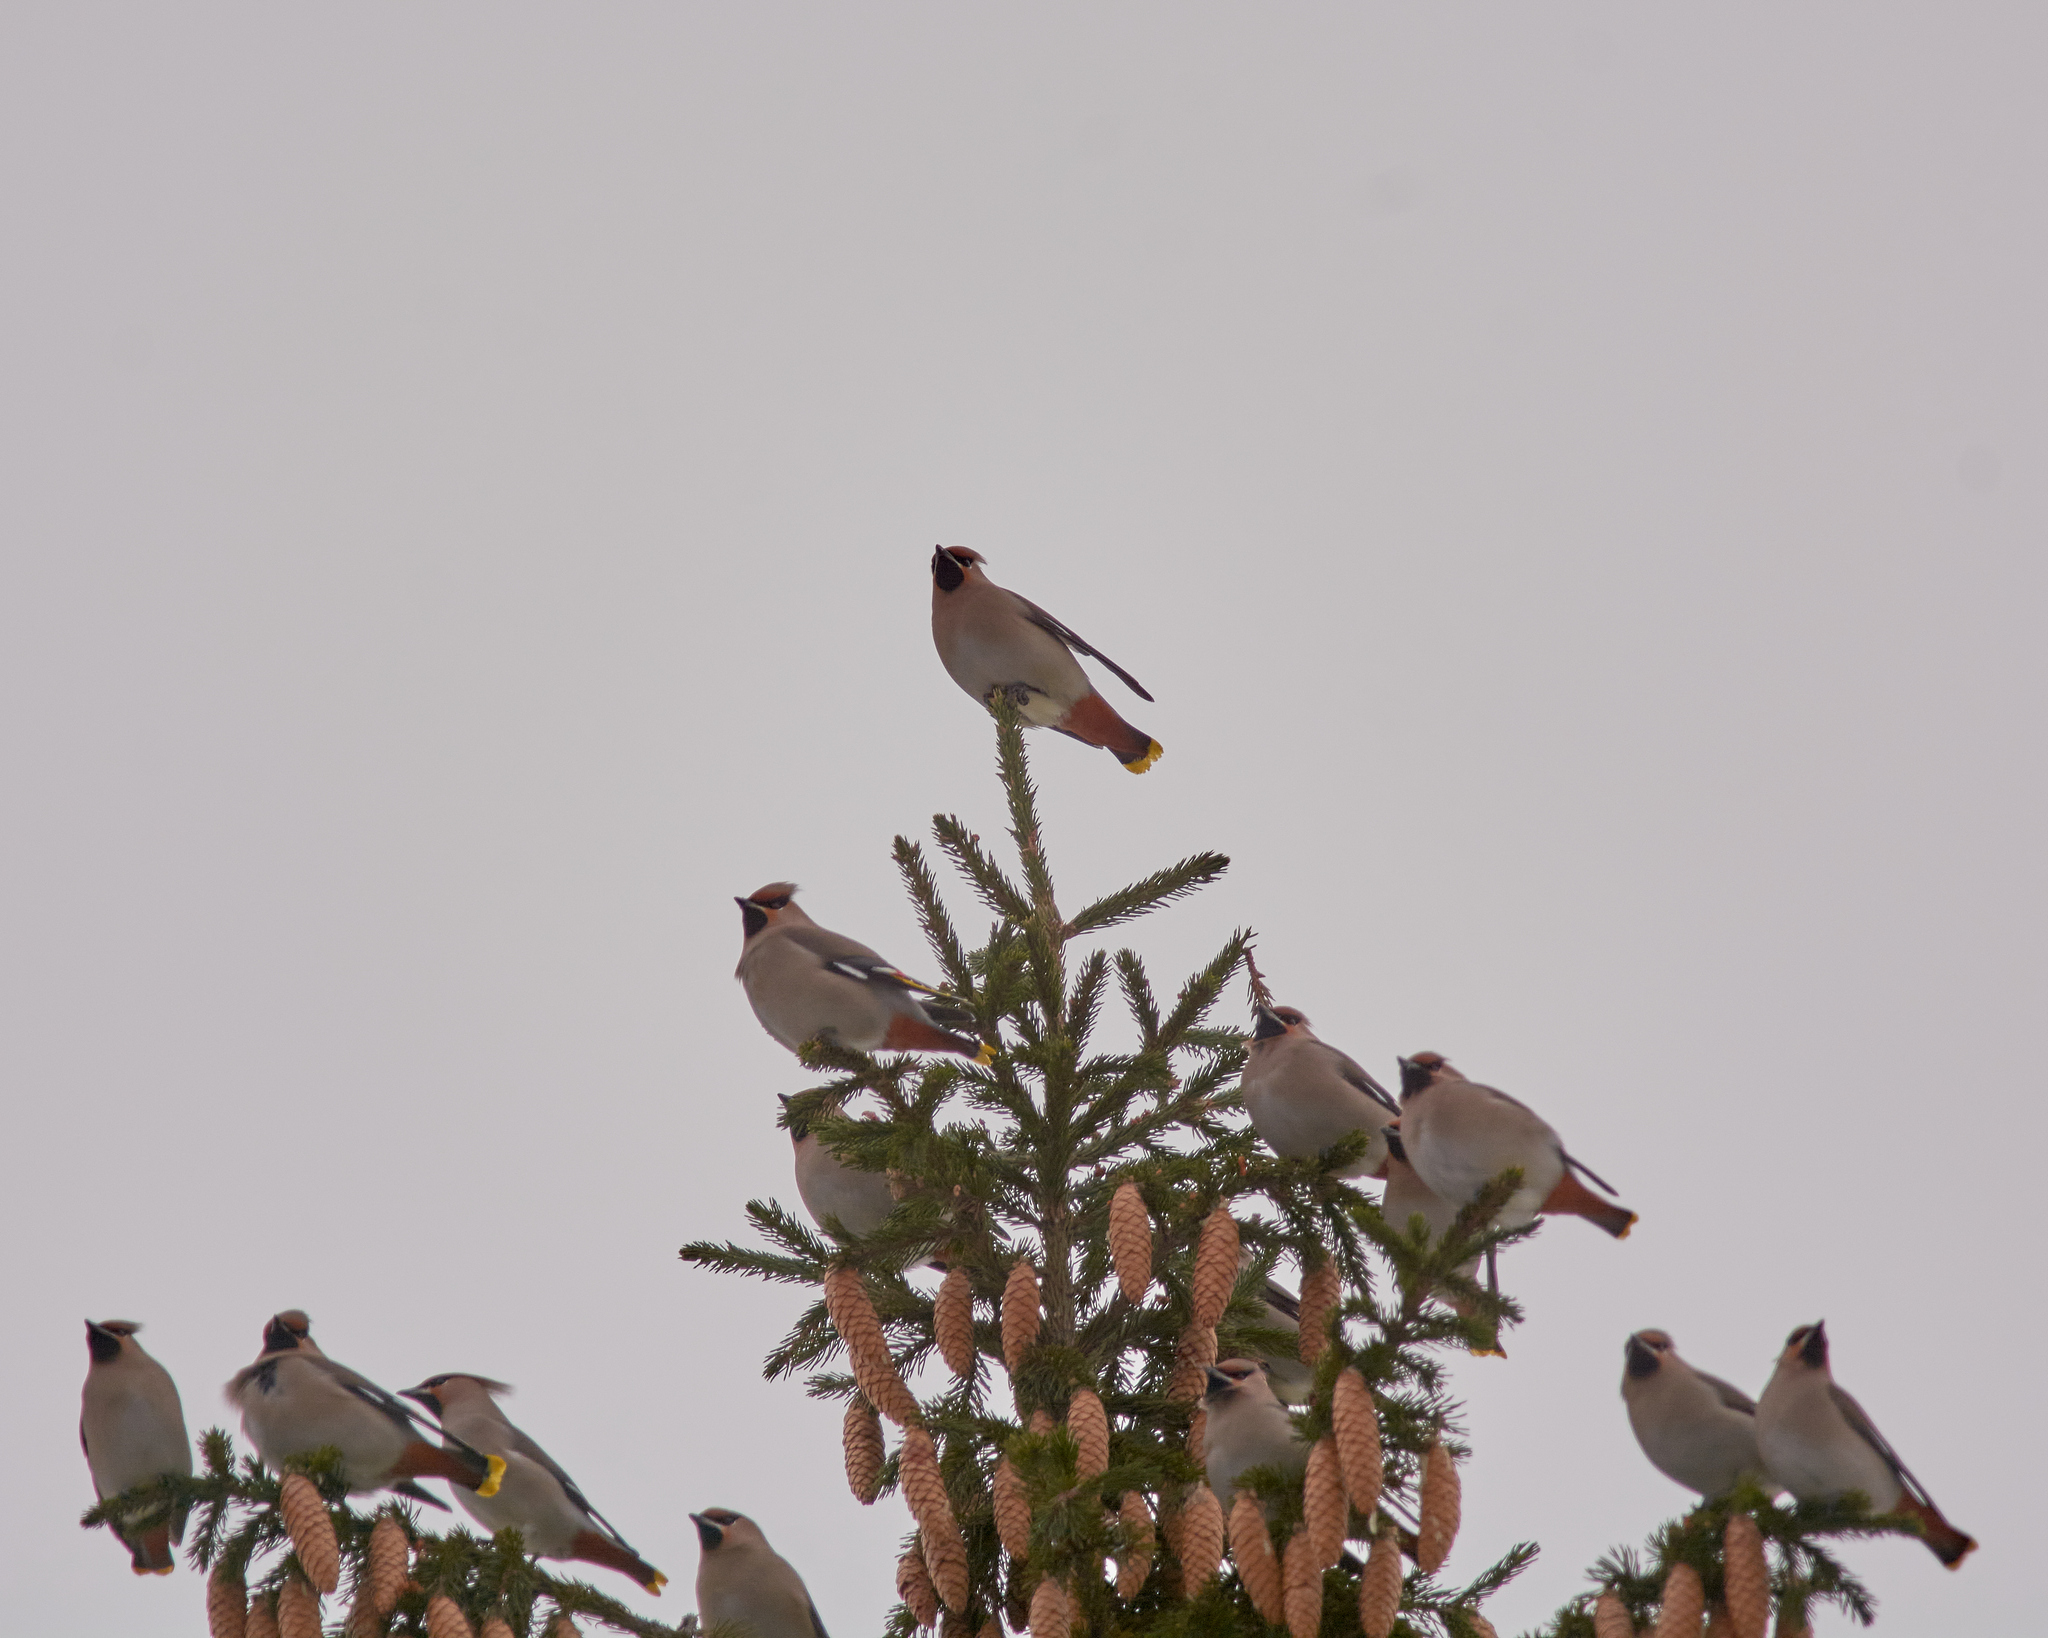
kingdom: Animalia
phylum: Chordata
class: Aves
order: Passeriformes
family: Bombycillidae
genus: Bombycilla
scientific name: Bombycilla garrulus
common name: Bohemian waxwing
